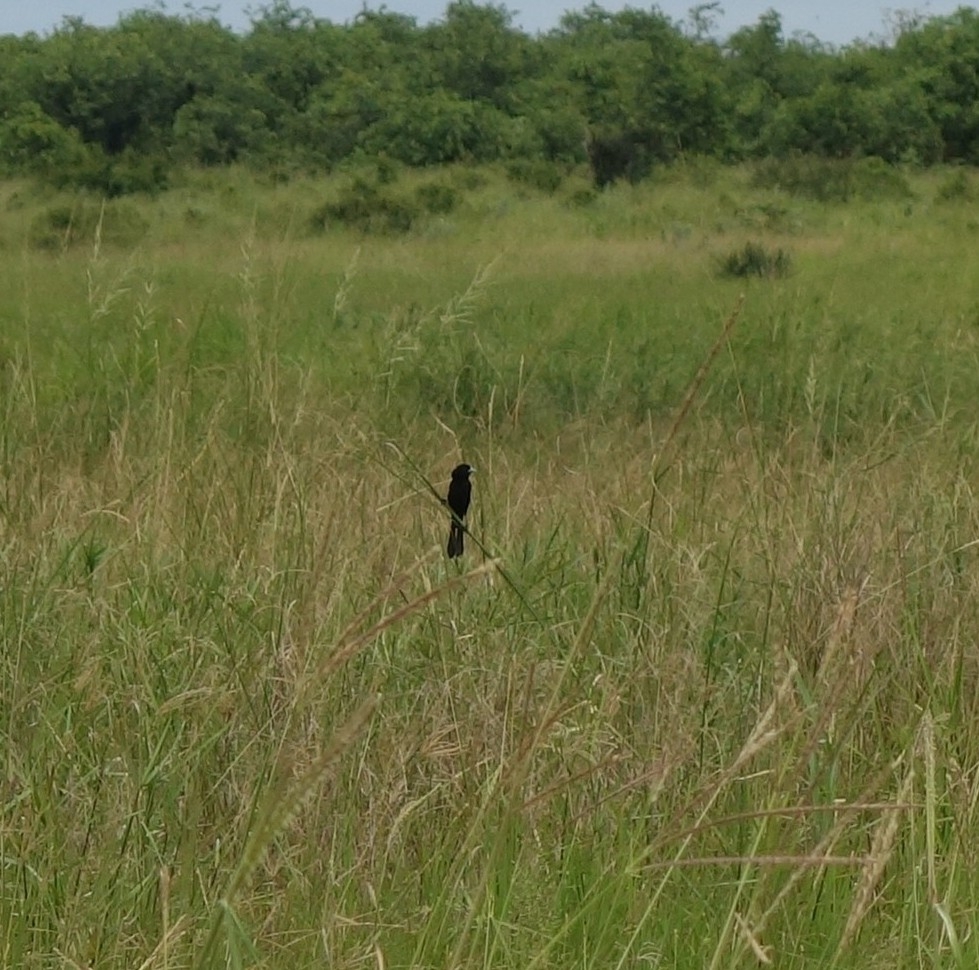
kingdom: Animalia
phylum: Chordata
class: Aves
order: Passeriformes
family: Ploceidae
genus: Euplectes
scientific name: Euplectes albonotatus
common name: White-winged widowbird
